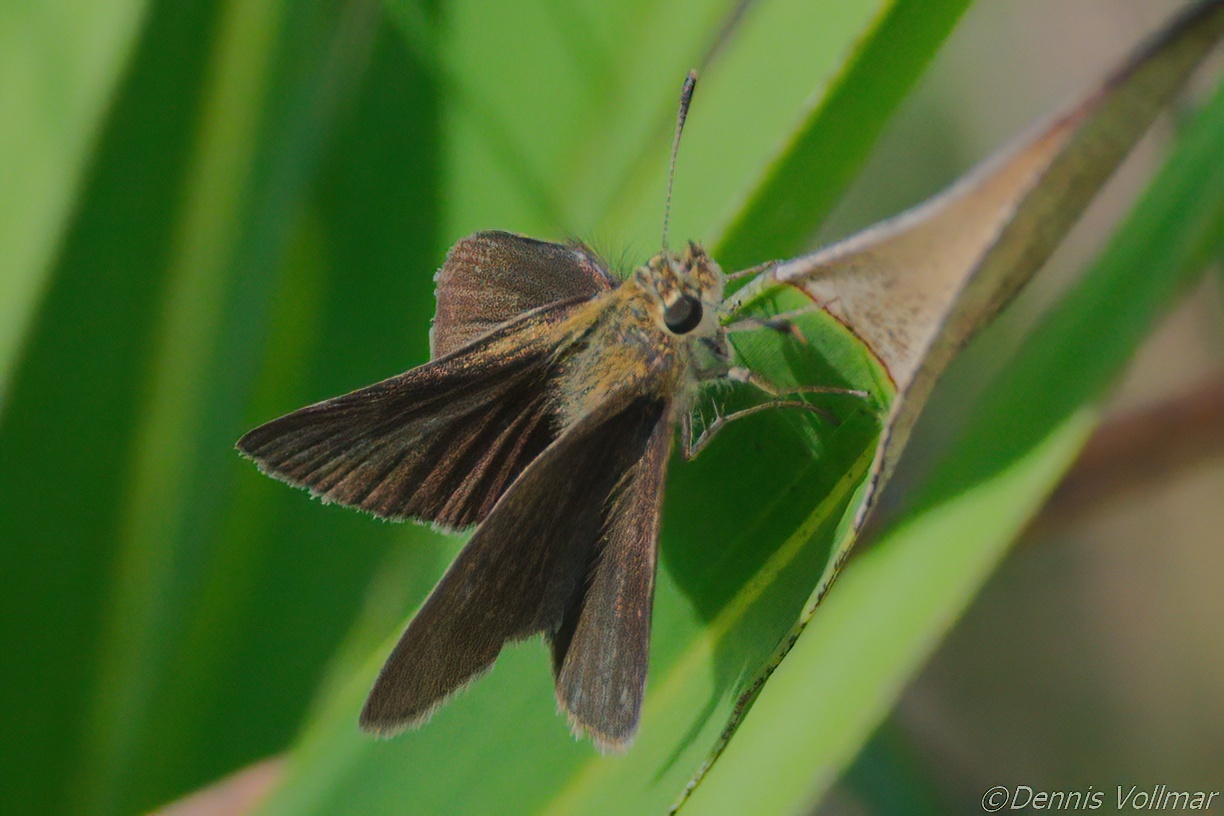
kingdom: Animalia
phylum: Arthropoda
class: Insecta
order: Lepidoptera
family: Hesperiidae
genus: Nastra
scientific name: Nastra lherminier
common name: Swarthy skipper
